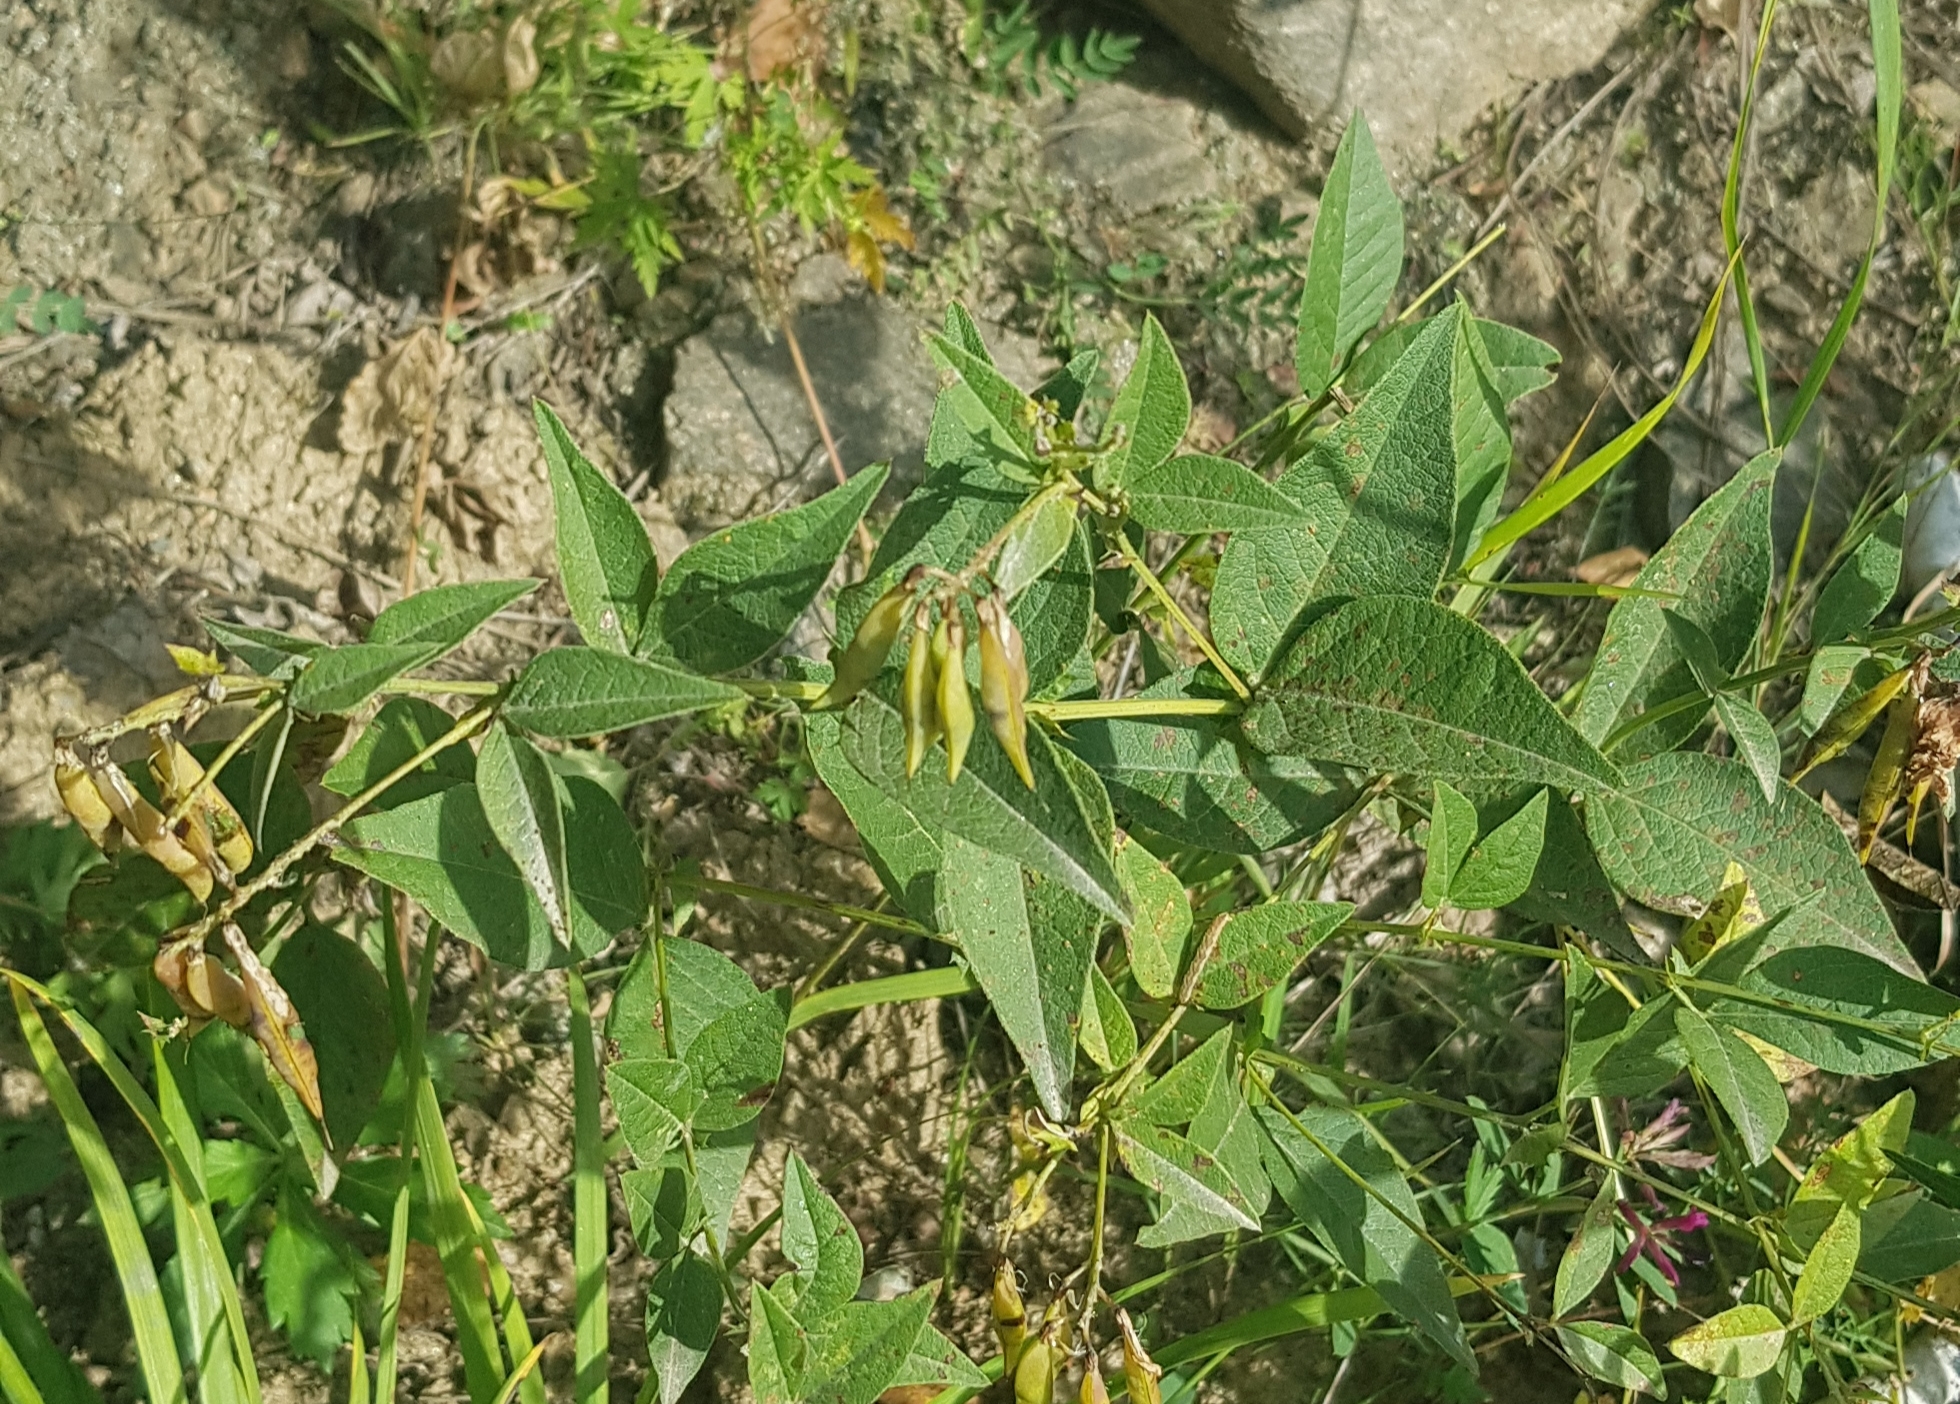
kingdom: Plantae
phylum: Tracheophyta
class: Magnoliopsida
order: Fabales
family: Fabaceae
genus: Vicia
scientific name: Vicia unijuga
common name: Two-leaf vetch
